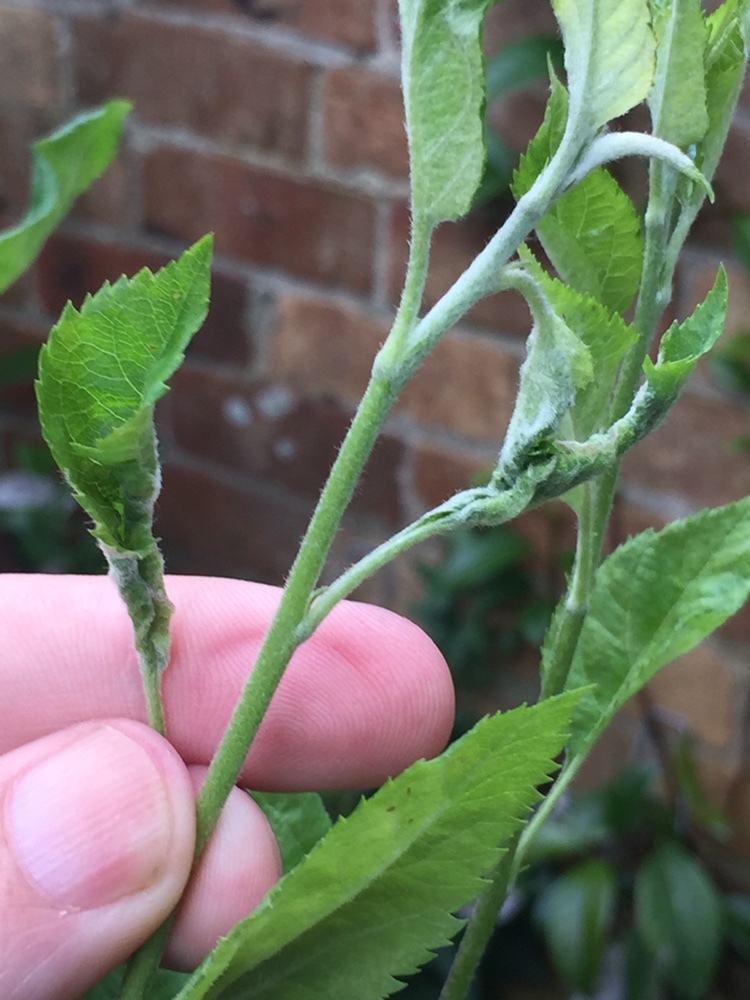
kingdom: Animalia
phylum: Arthropoda
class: Insecta
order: Diptera
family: Cecidomyiidae
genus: Dasineura
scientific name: Dasineura mali
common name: Apple leaf midge
